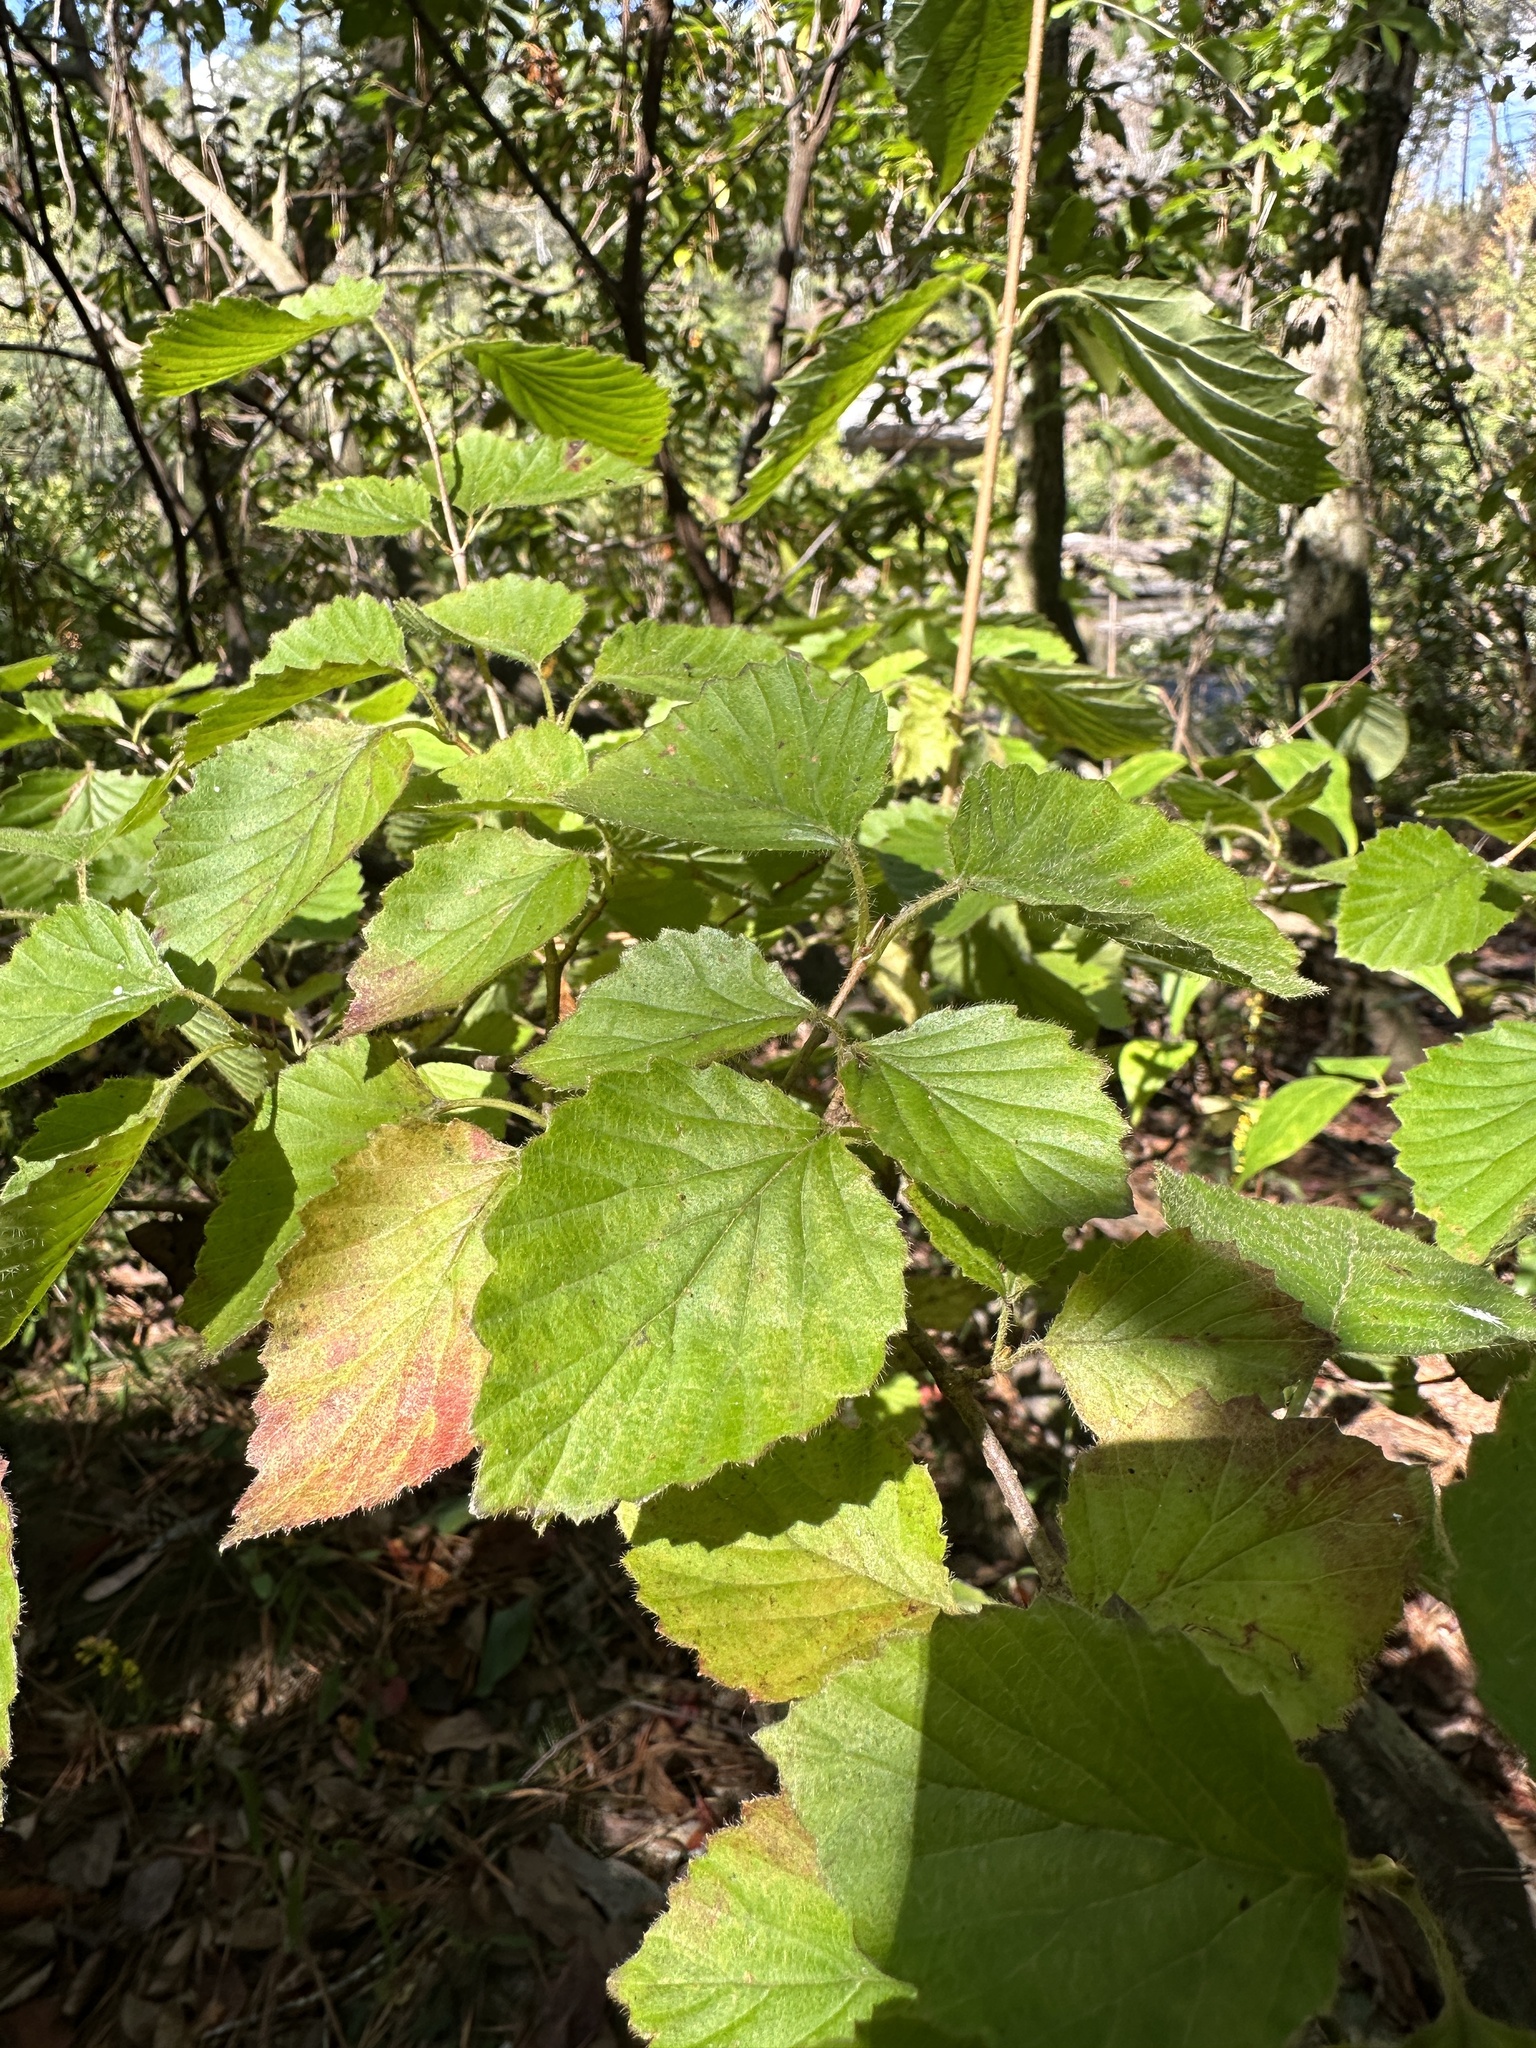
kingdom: Plantae
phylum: Tracheophyta
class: Magnoliopsida
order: Dipsacales
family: Viburnaceae
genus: Viburnum
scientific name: Viburnum alabamense
